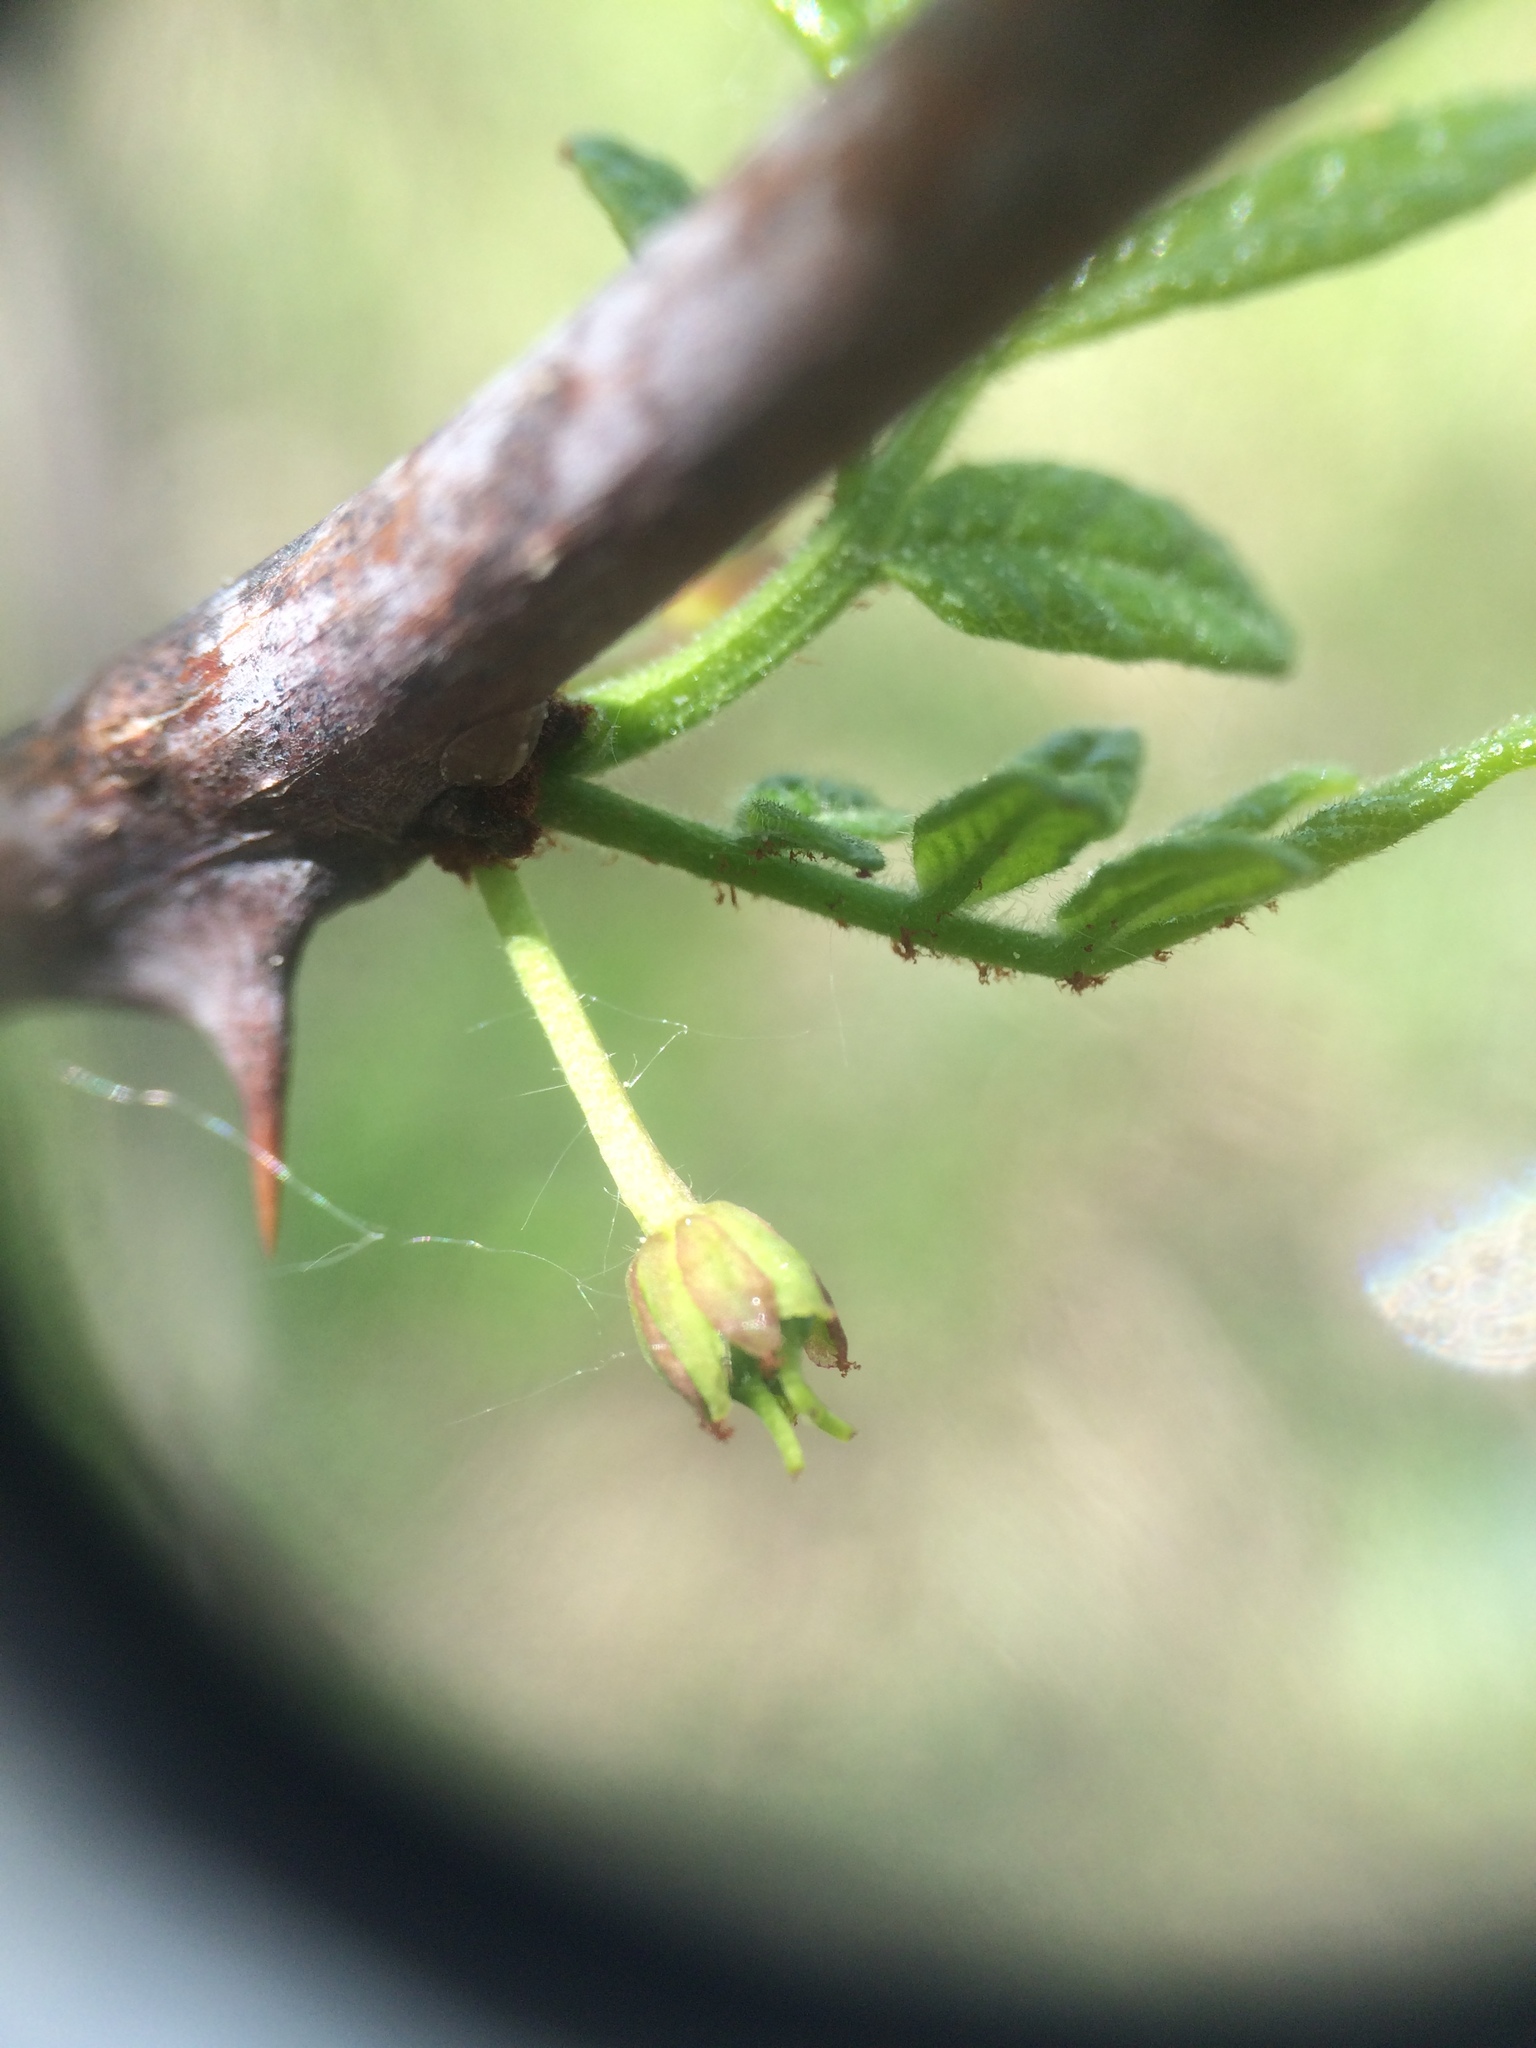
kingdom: Plantae
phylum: Tracheophyta
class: Magnoliopsida
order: Sapindales
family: Rutaceae
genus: Zanthoxylum
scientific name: Zanthoxylum americanum
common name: Northern prickly-ash
